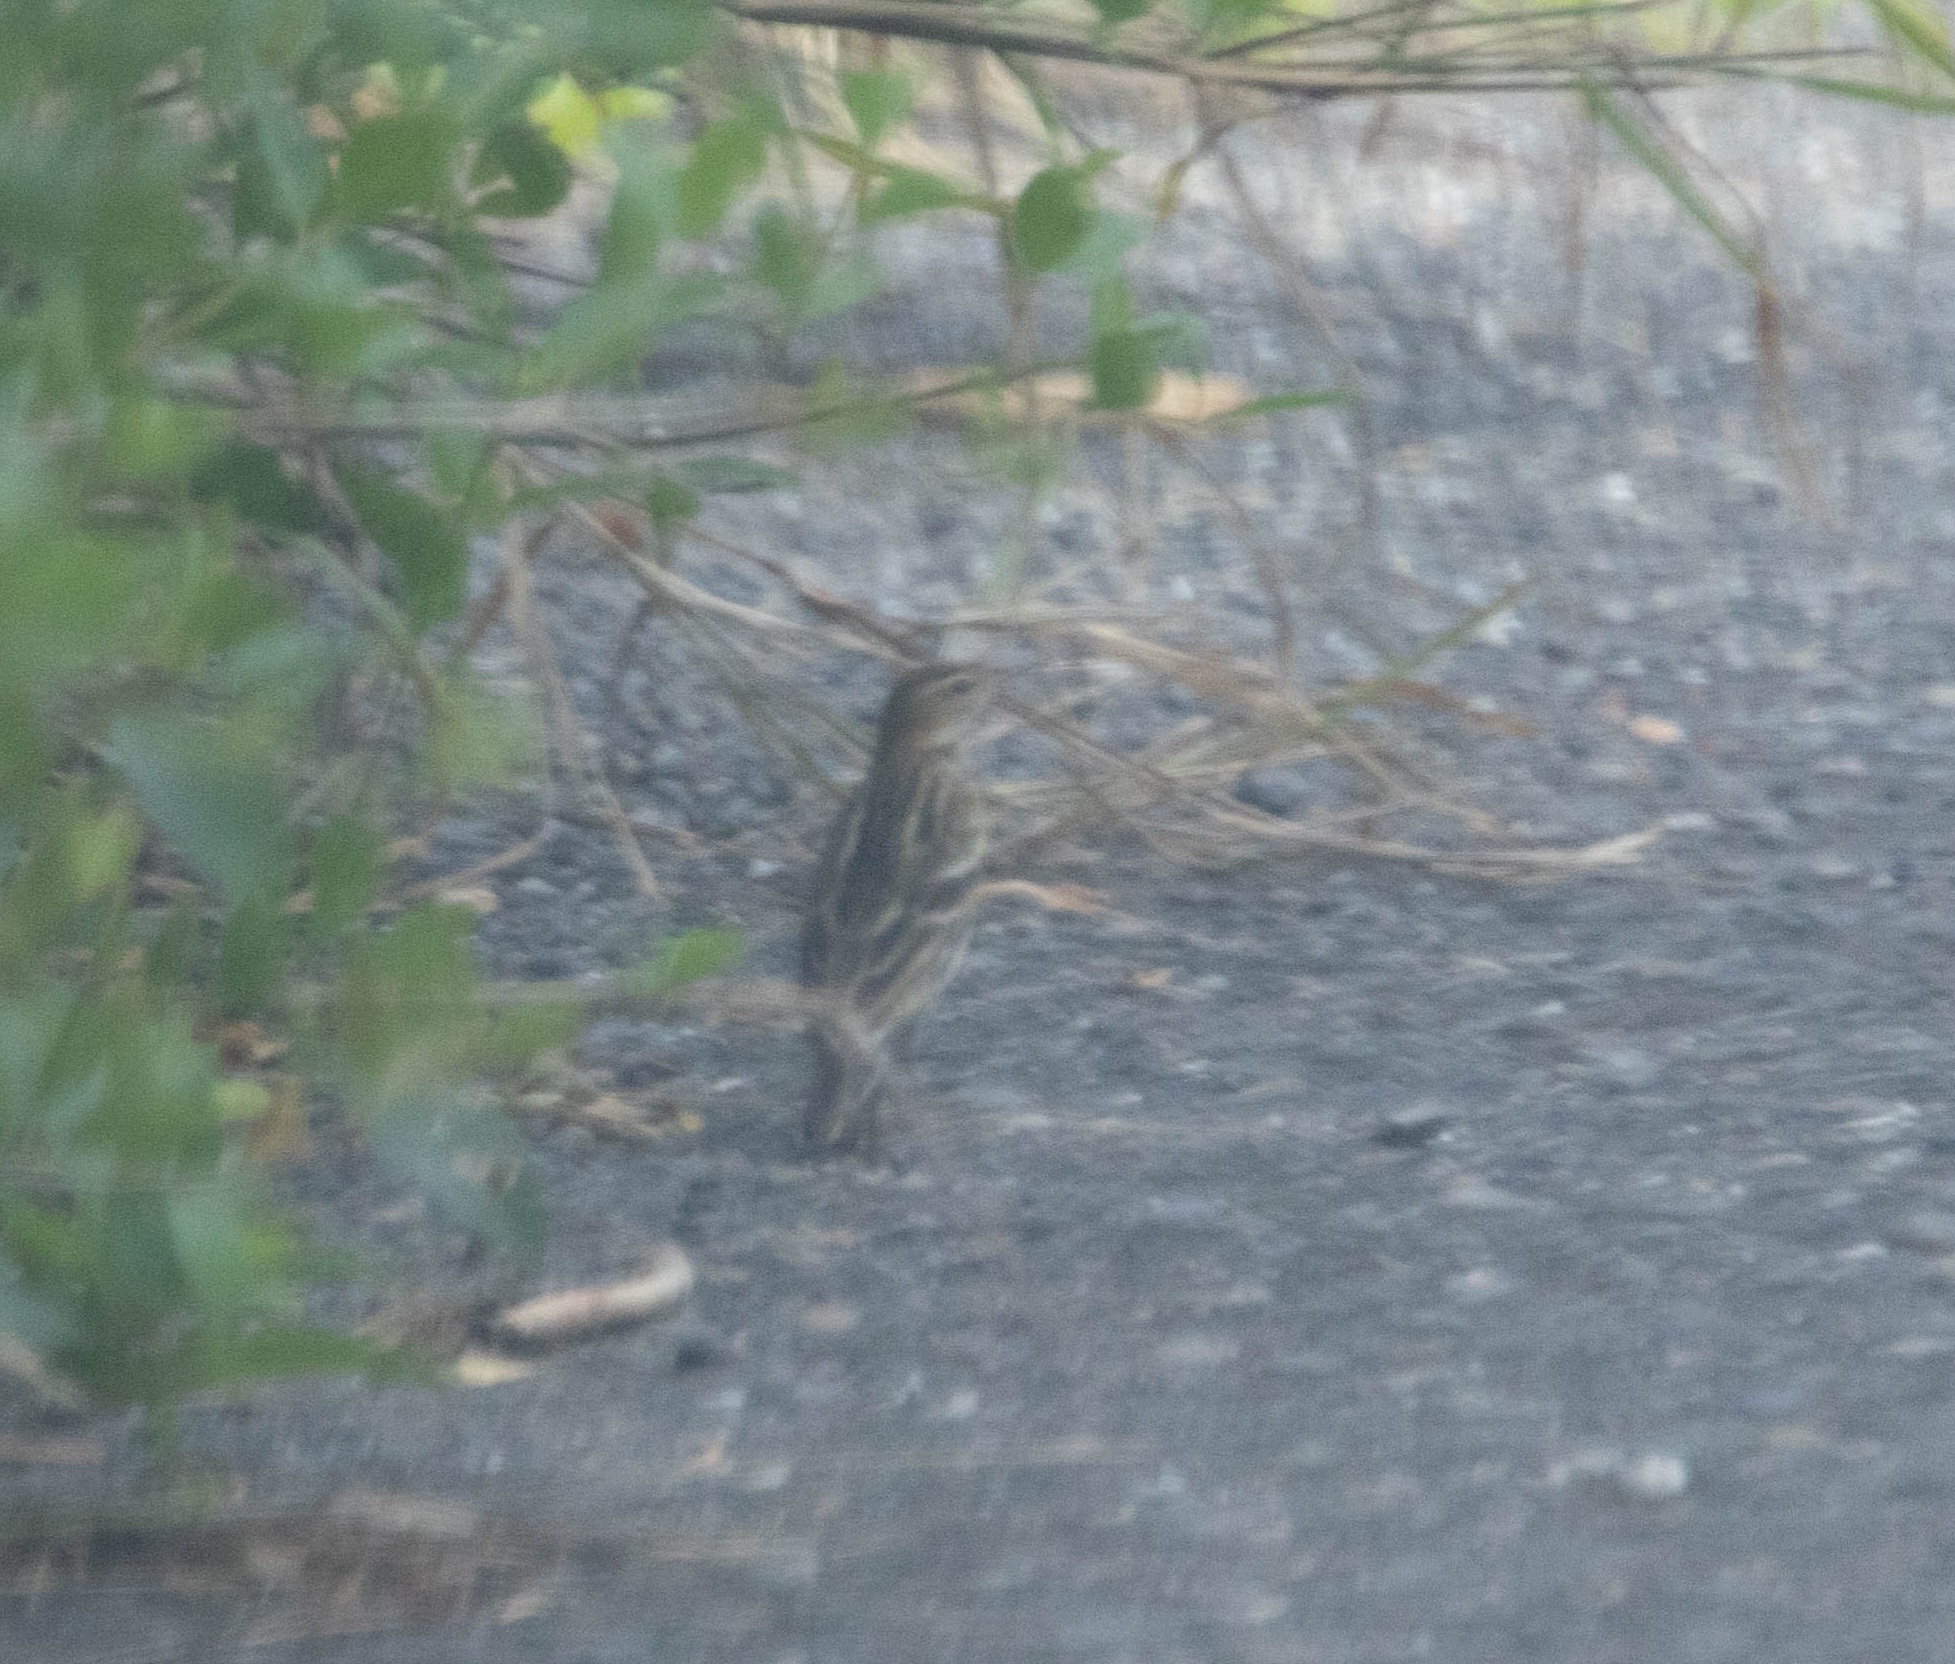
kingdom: Animalia
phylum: Chordata
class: Aves
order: Passeriformes
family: Motacillidae
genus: Anthus
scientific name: Anthus gustavi
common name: Pechora pipit
